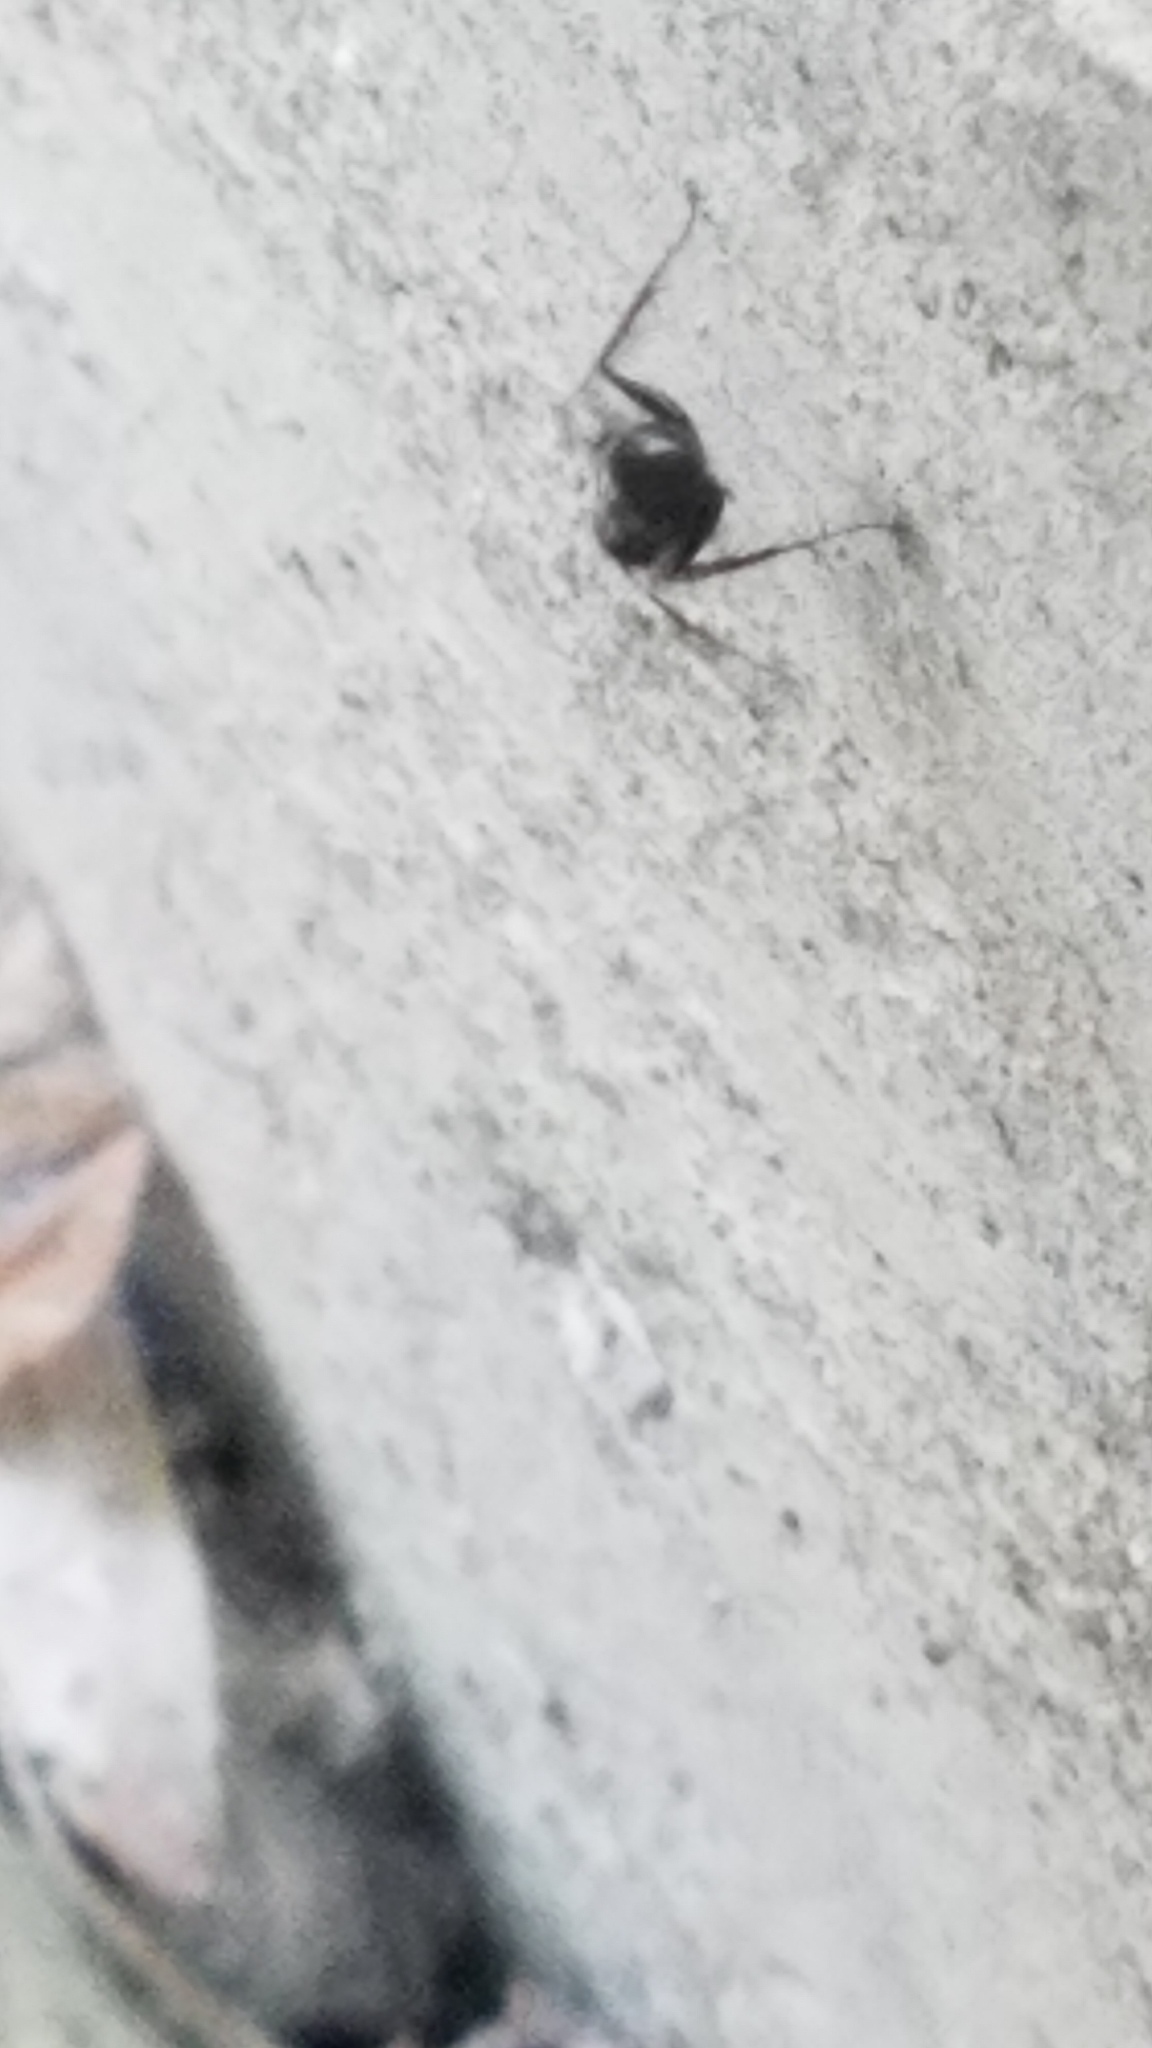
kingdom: Animalia
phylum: Arthropoda
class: Insecta
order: Hymenoptera
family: Formicidae
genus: Camponotus
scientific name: Camponotus pennsylvanicus
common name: Black carpenter ant
